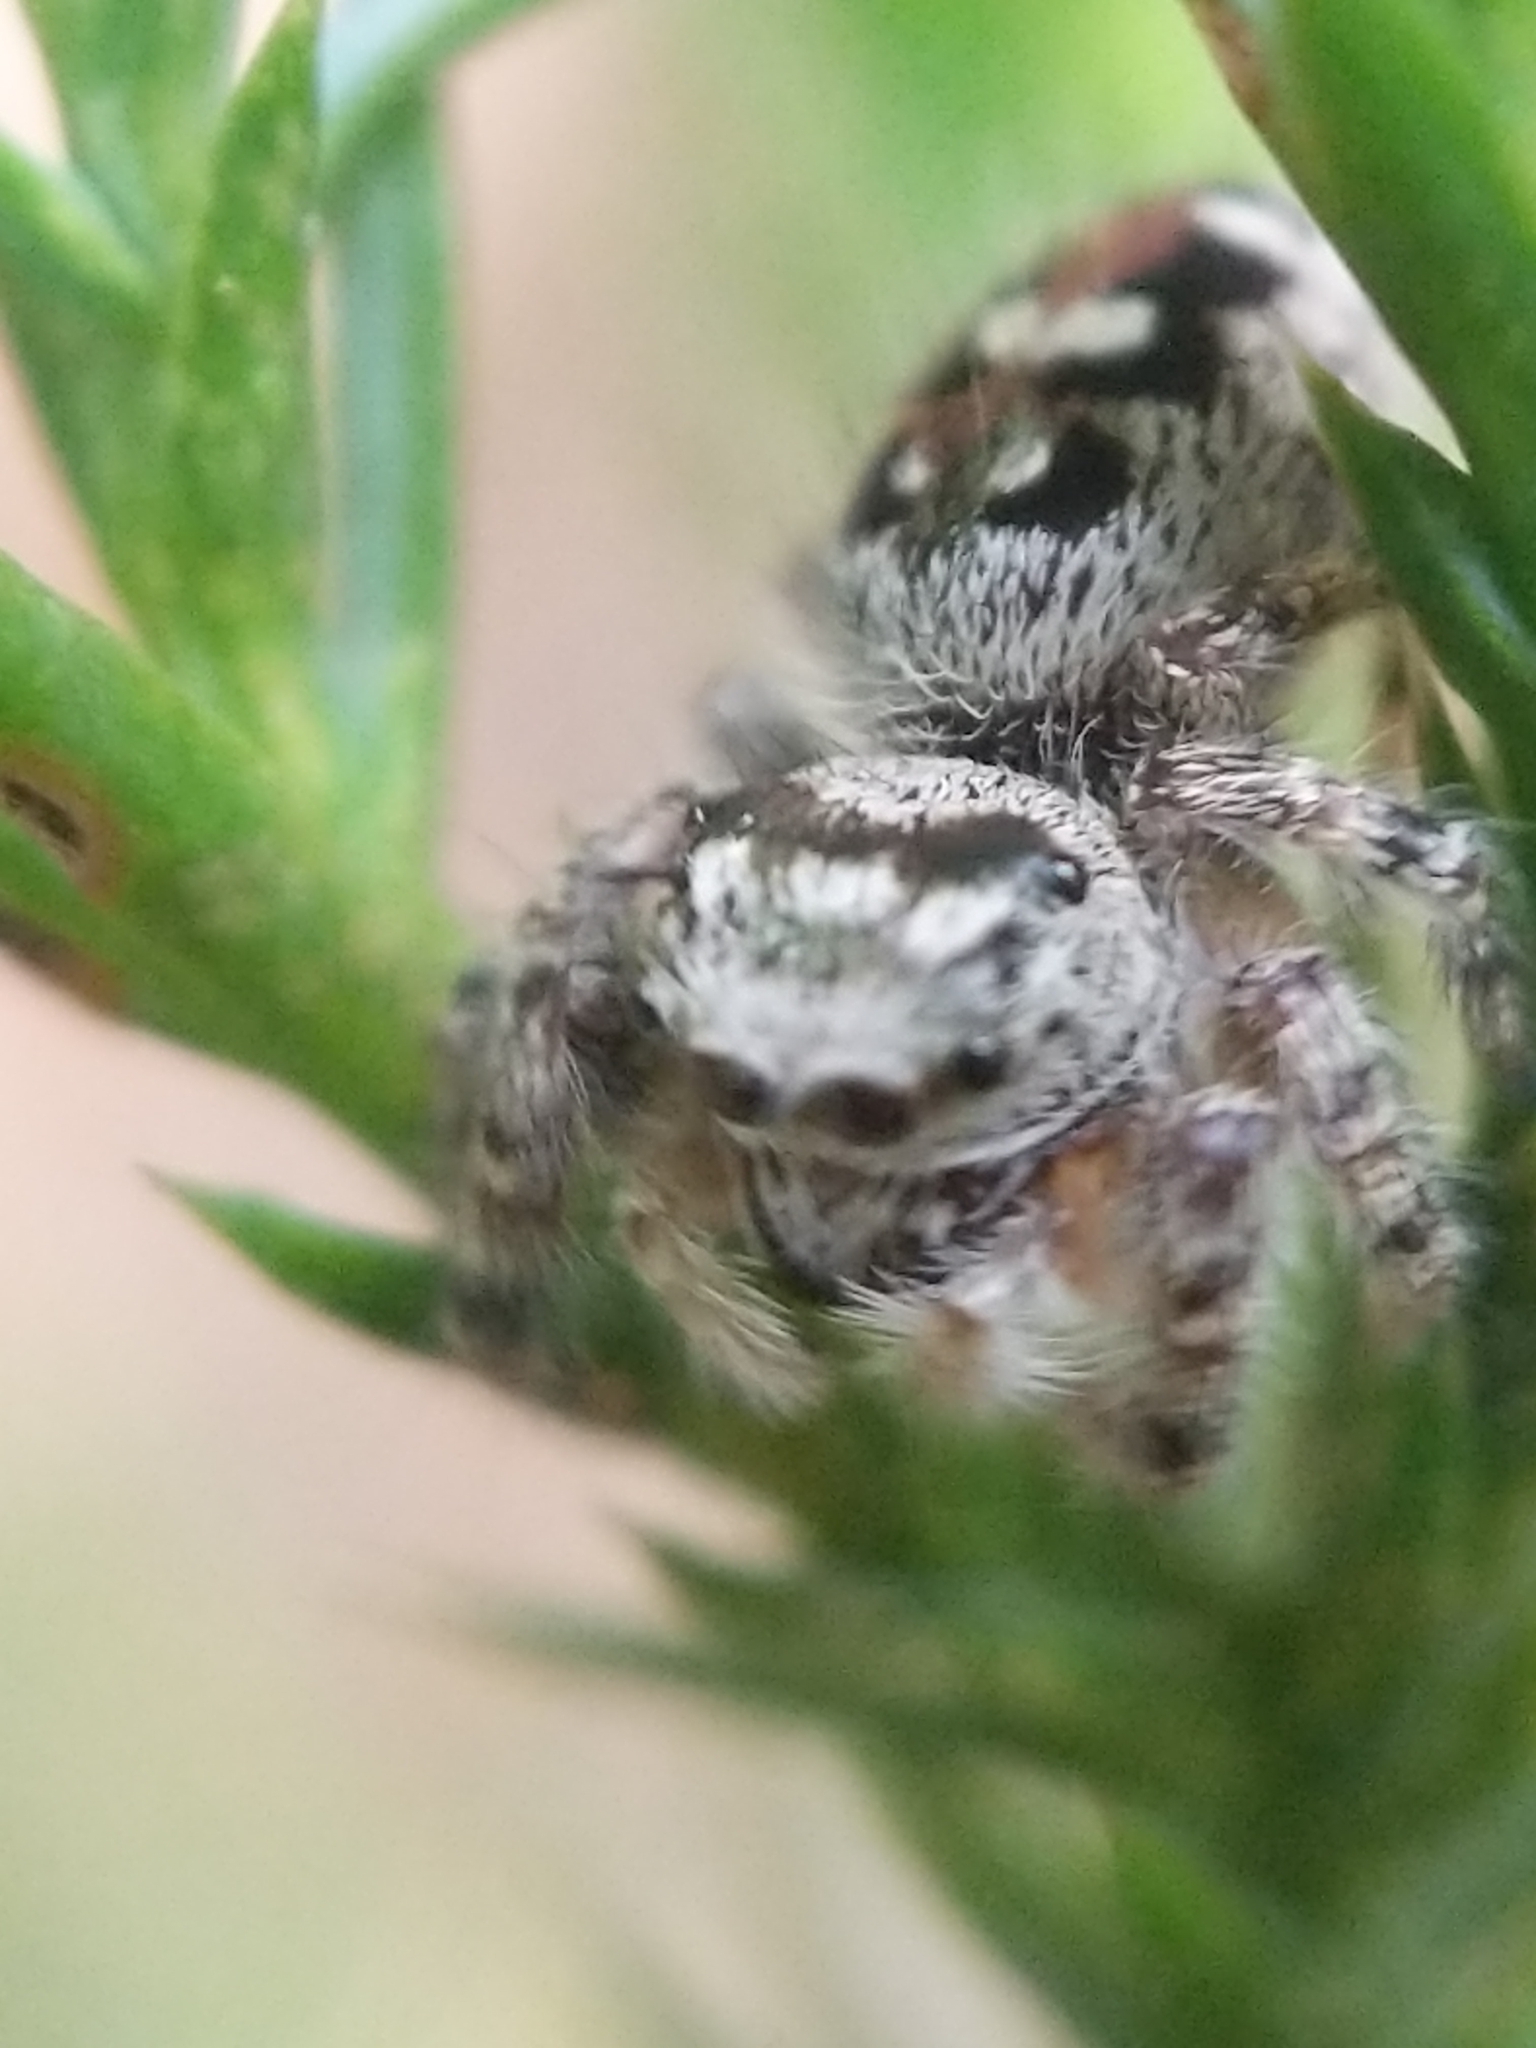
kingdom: Animalia
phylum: Arthropoda
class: Arachnida
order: Araneae
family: Salticidae
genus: Phidippus
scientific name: Phidippus otiosus
